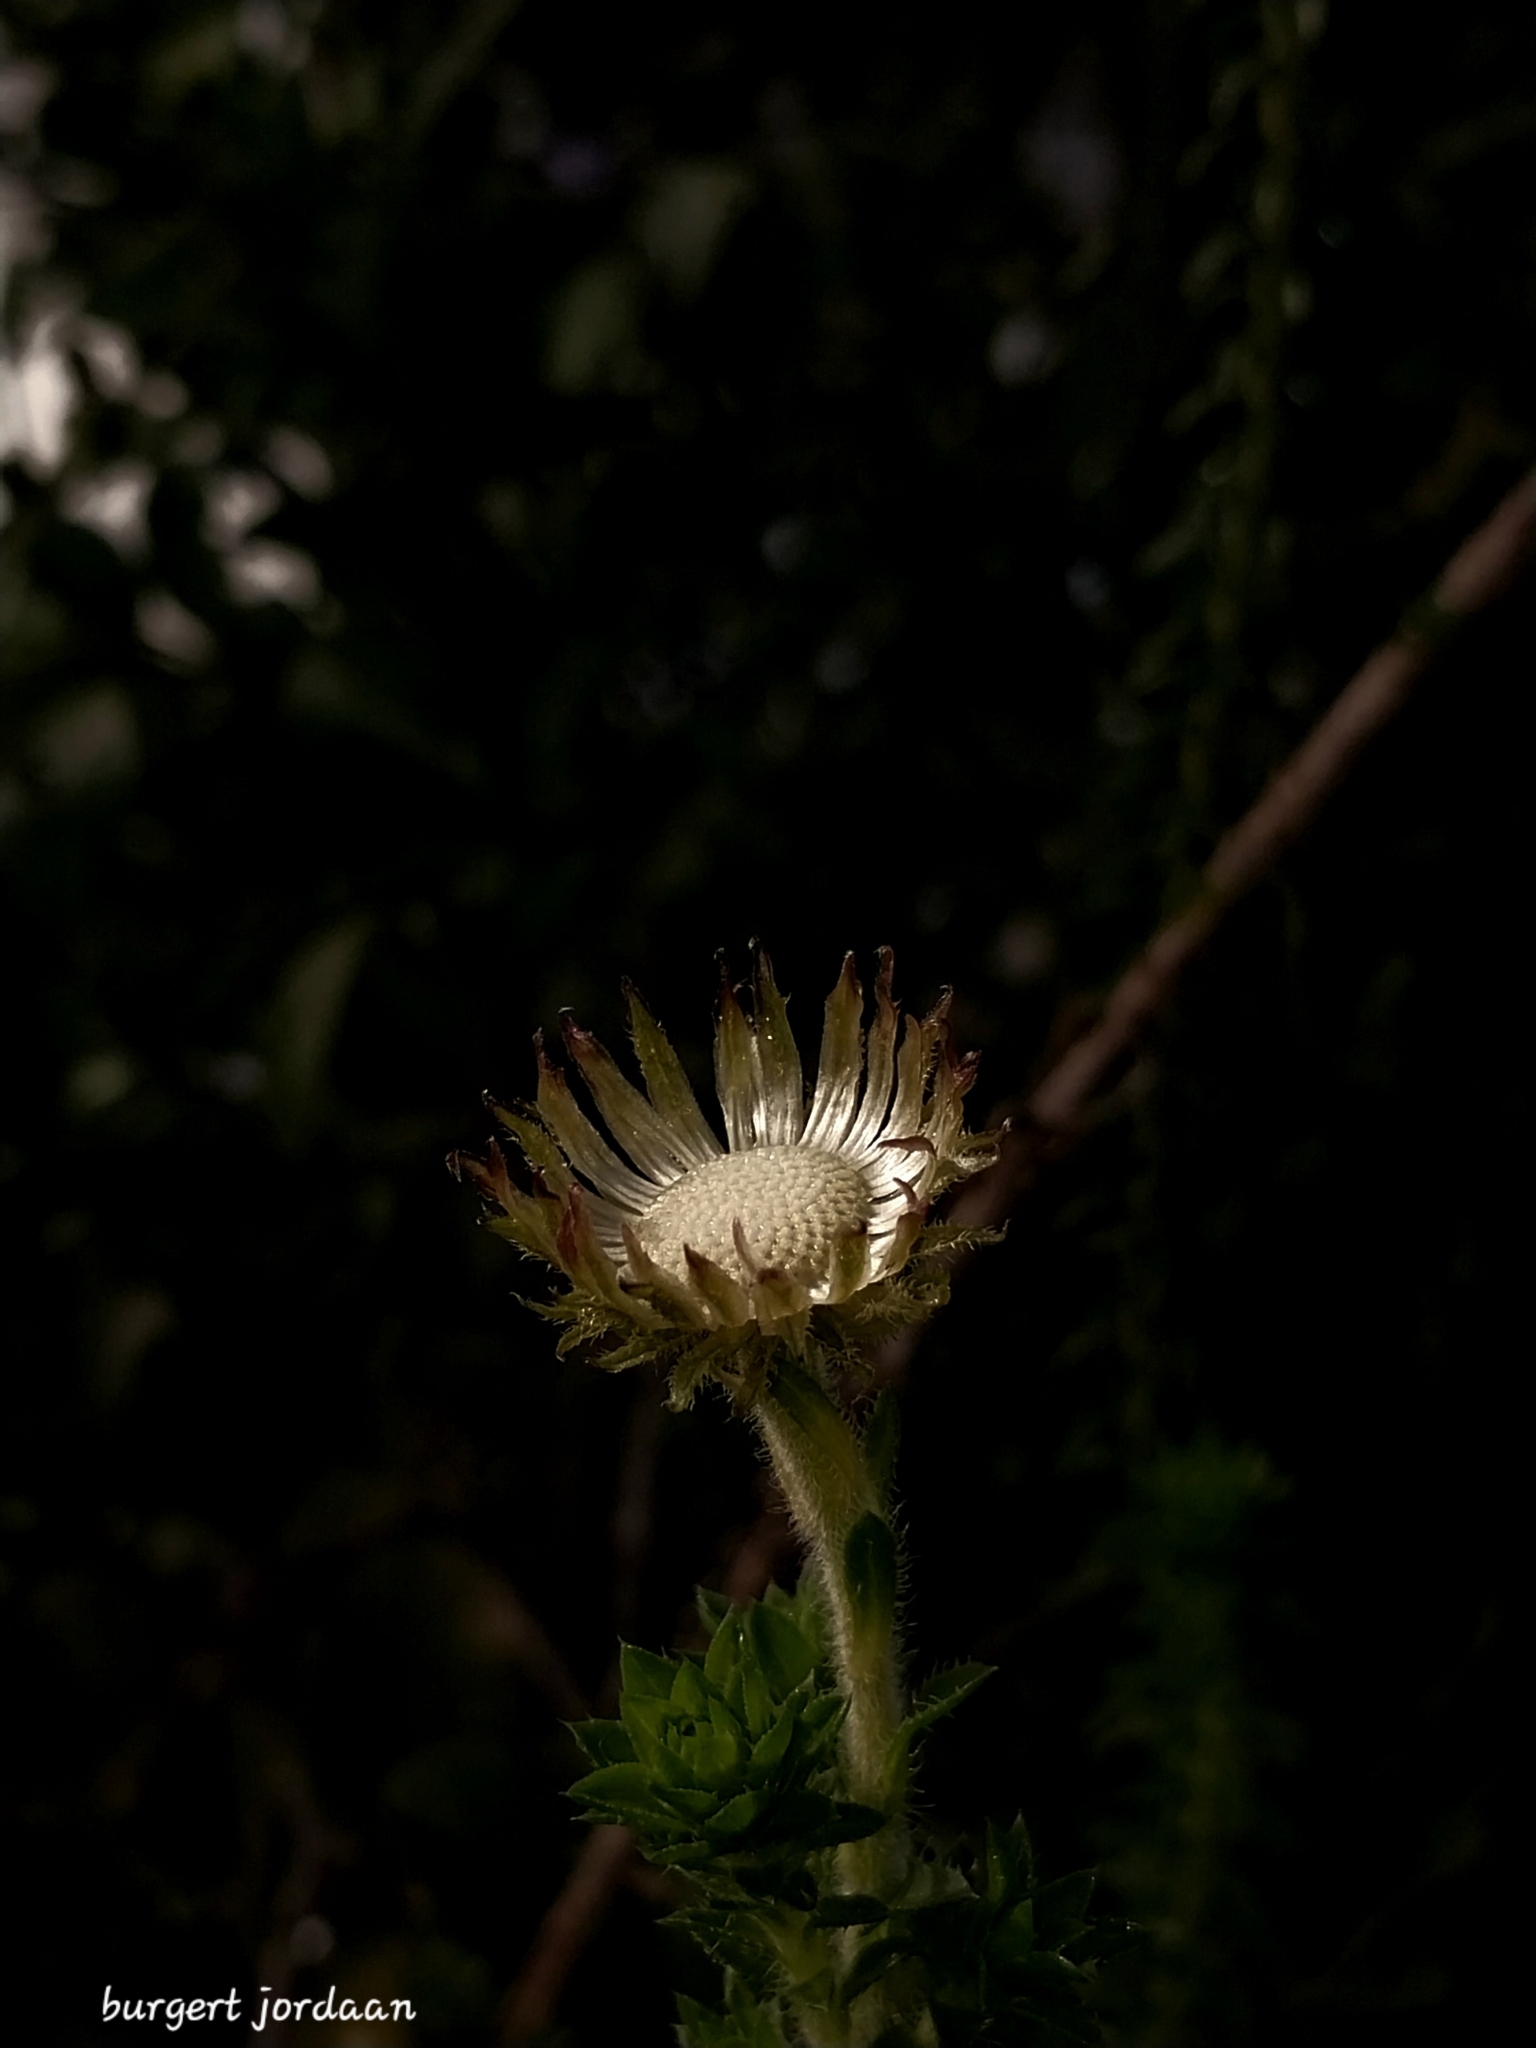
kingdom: Plantae
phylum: Tracheophyta
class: Magnoliopsida
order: Asterales
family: Asteraceae
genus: Felicia
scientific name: Felicia echinata
